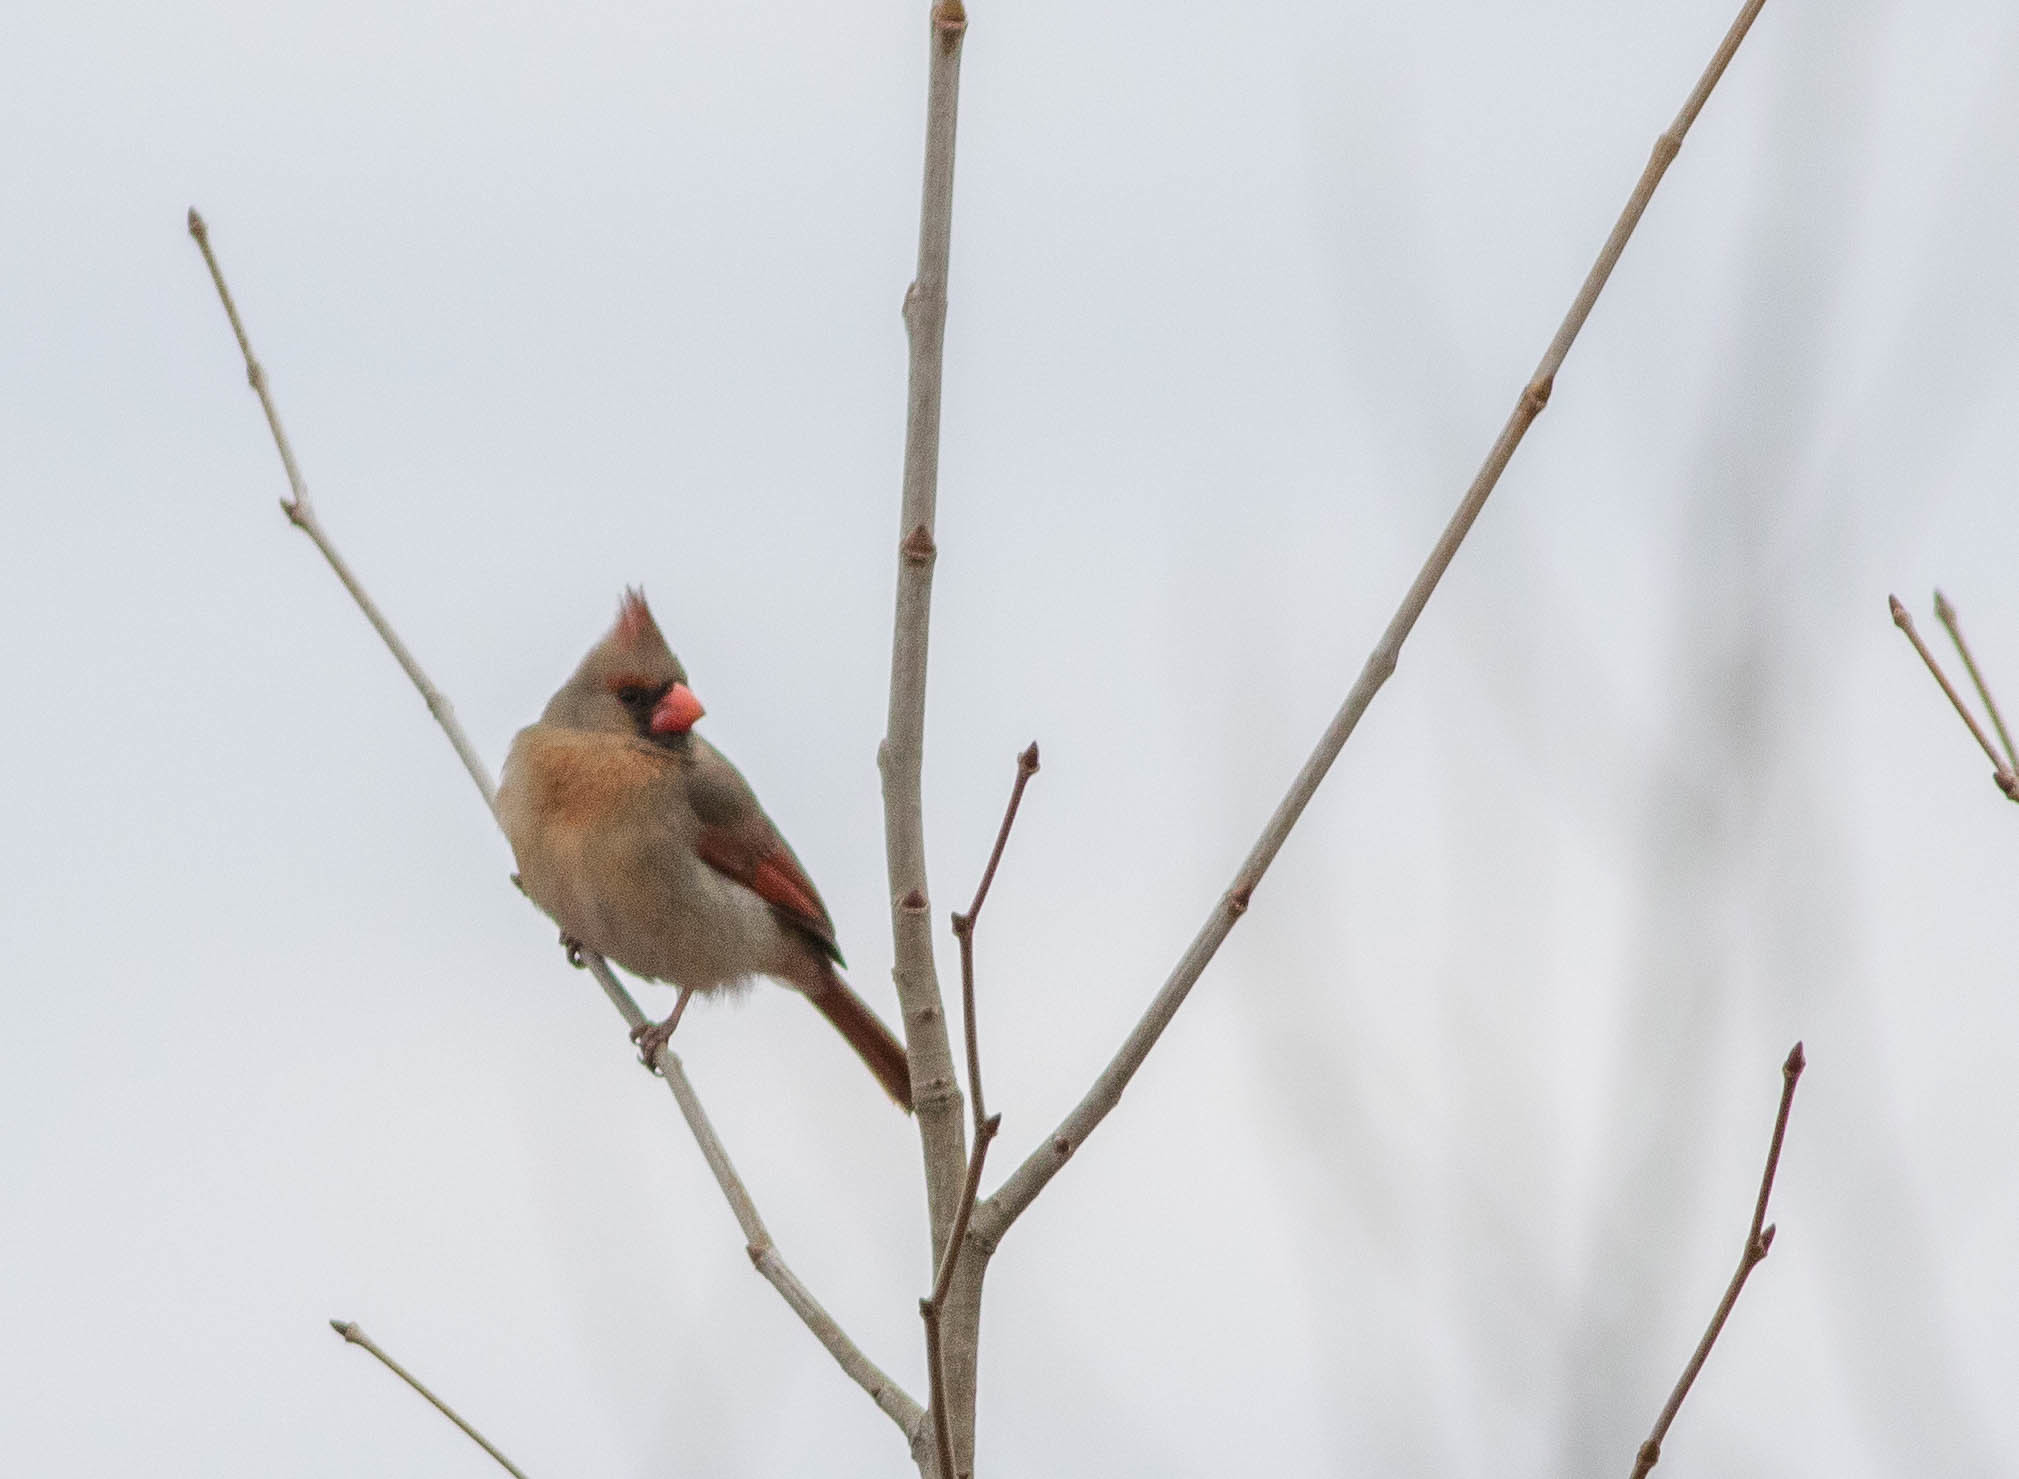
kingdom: Animalia
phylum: Chordata
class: Aves
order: Passeriformes
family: Cardinalidae
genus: Cardinalis
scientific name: Cardinalis cardinalis
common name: Northern cardinal
